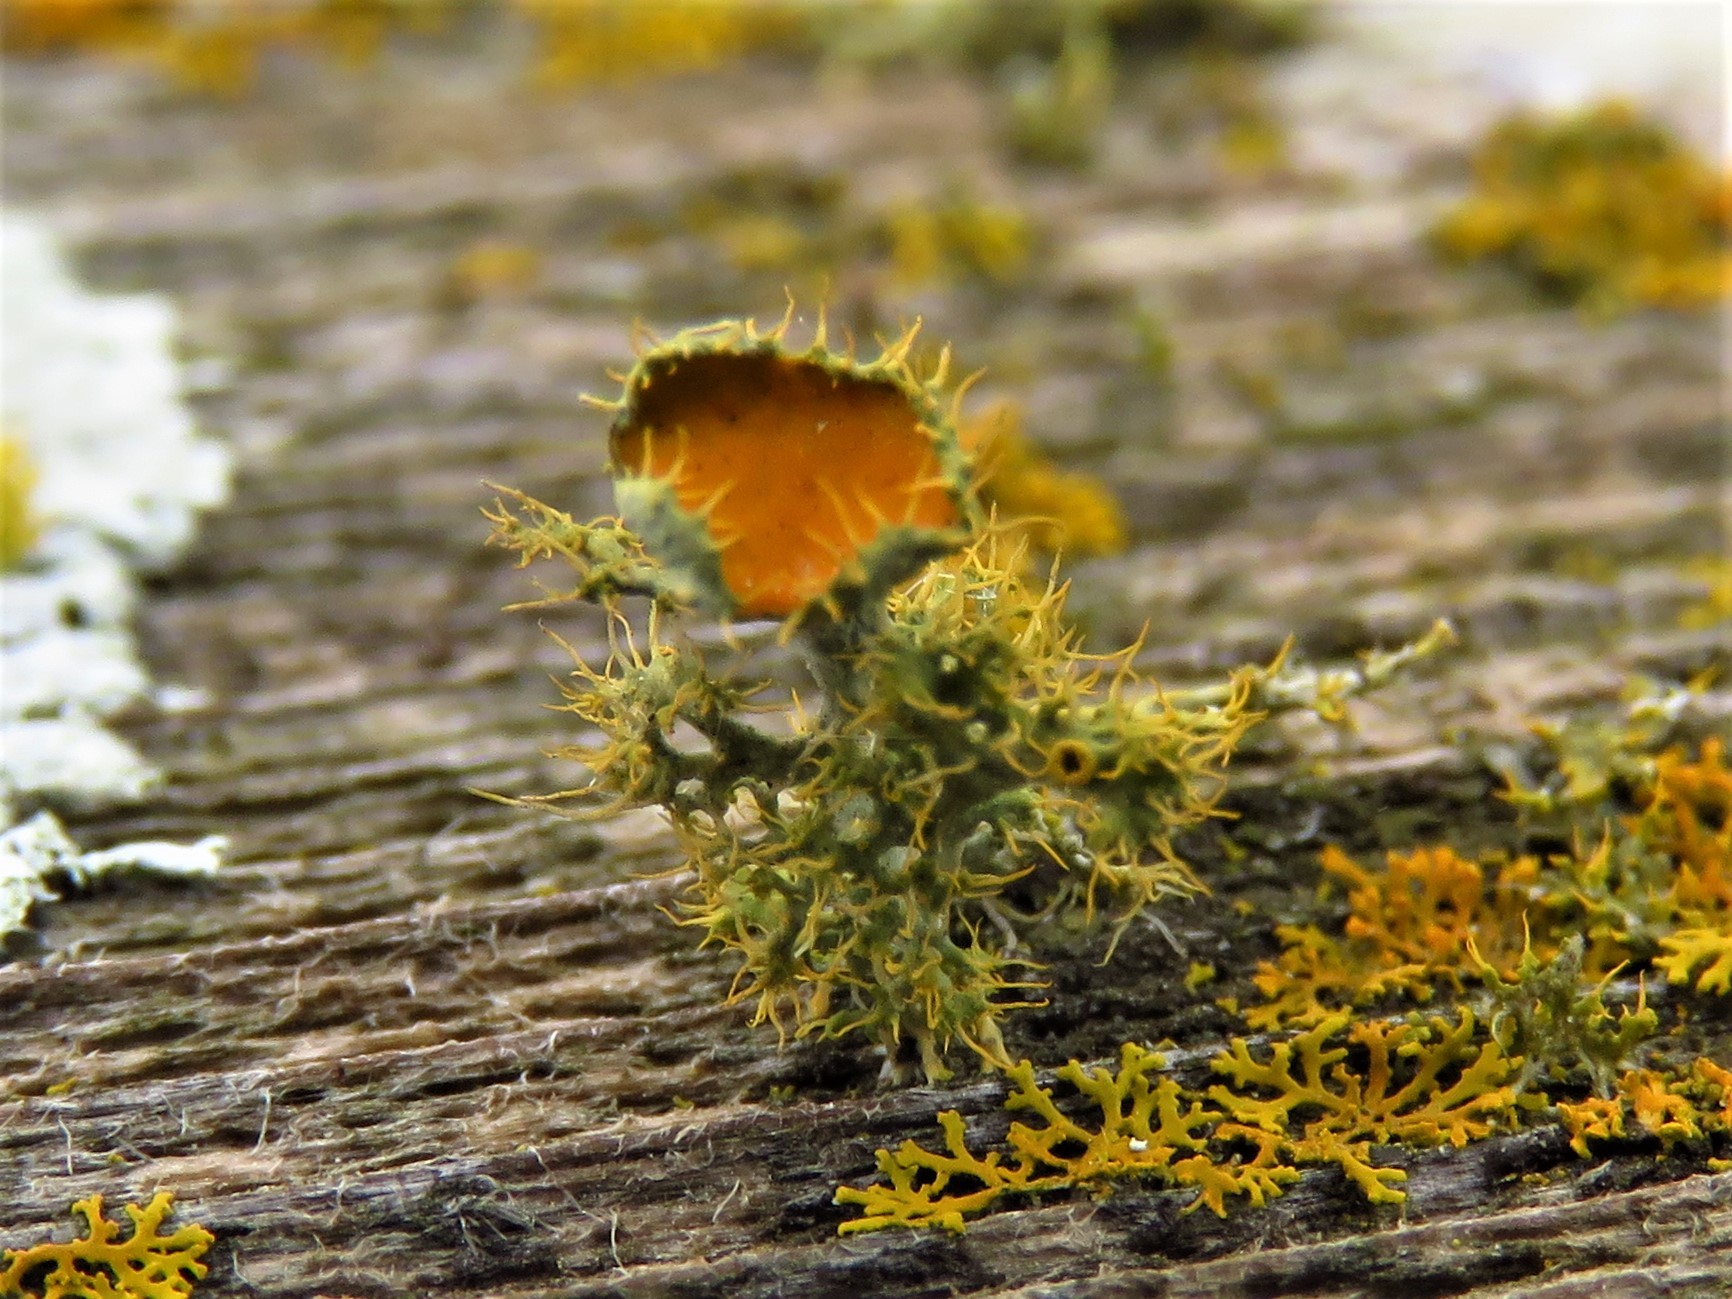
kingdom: Fungi
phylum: Ascomycota
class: Lecanoromycetes
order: Teloschistales
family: Teloschistaceae
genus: Niorma
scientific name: Niorma chrysophthalma
